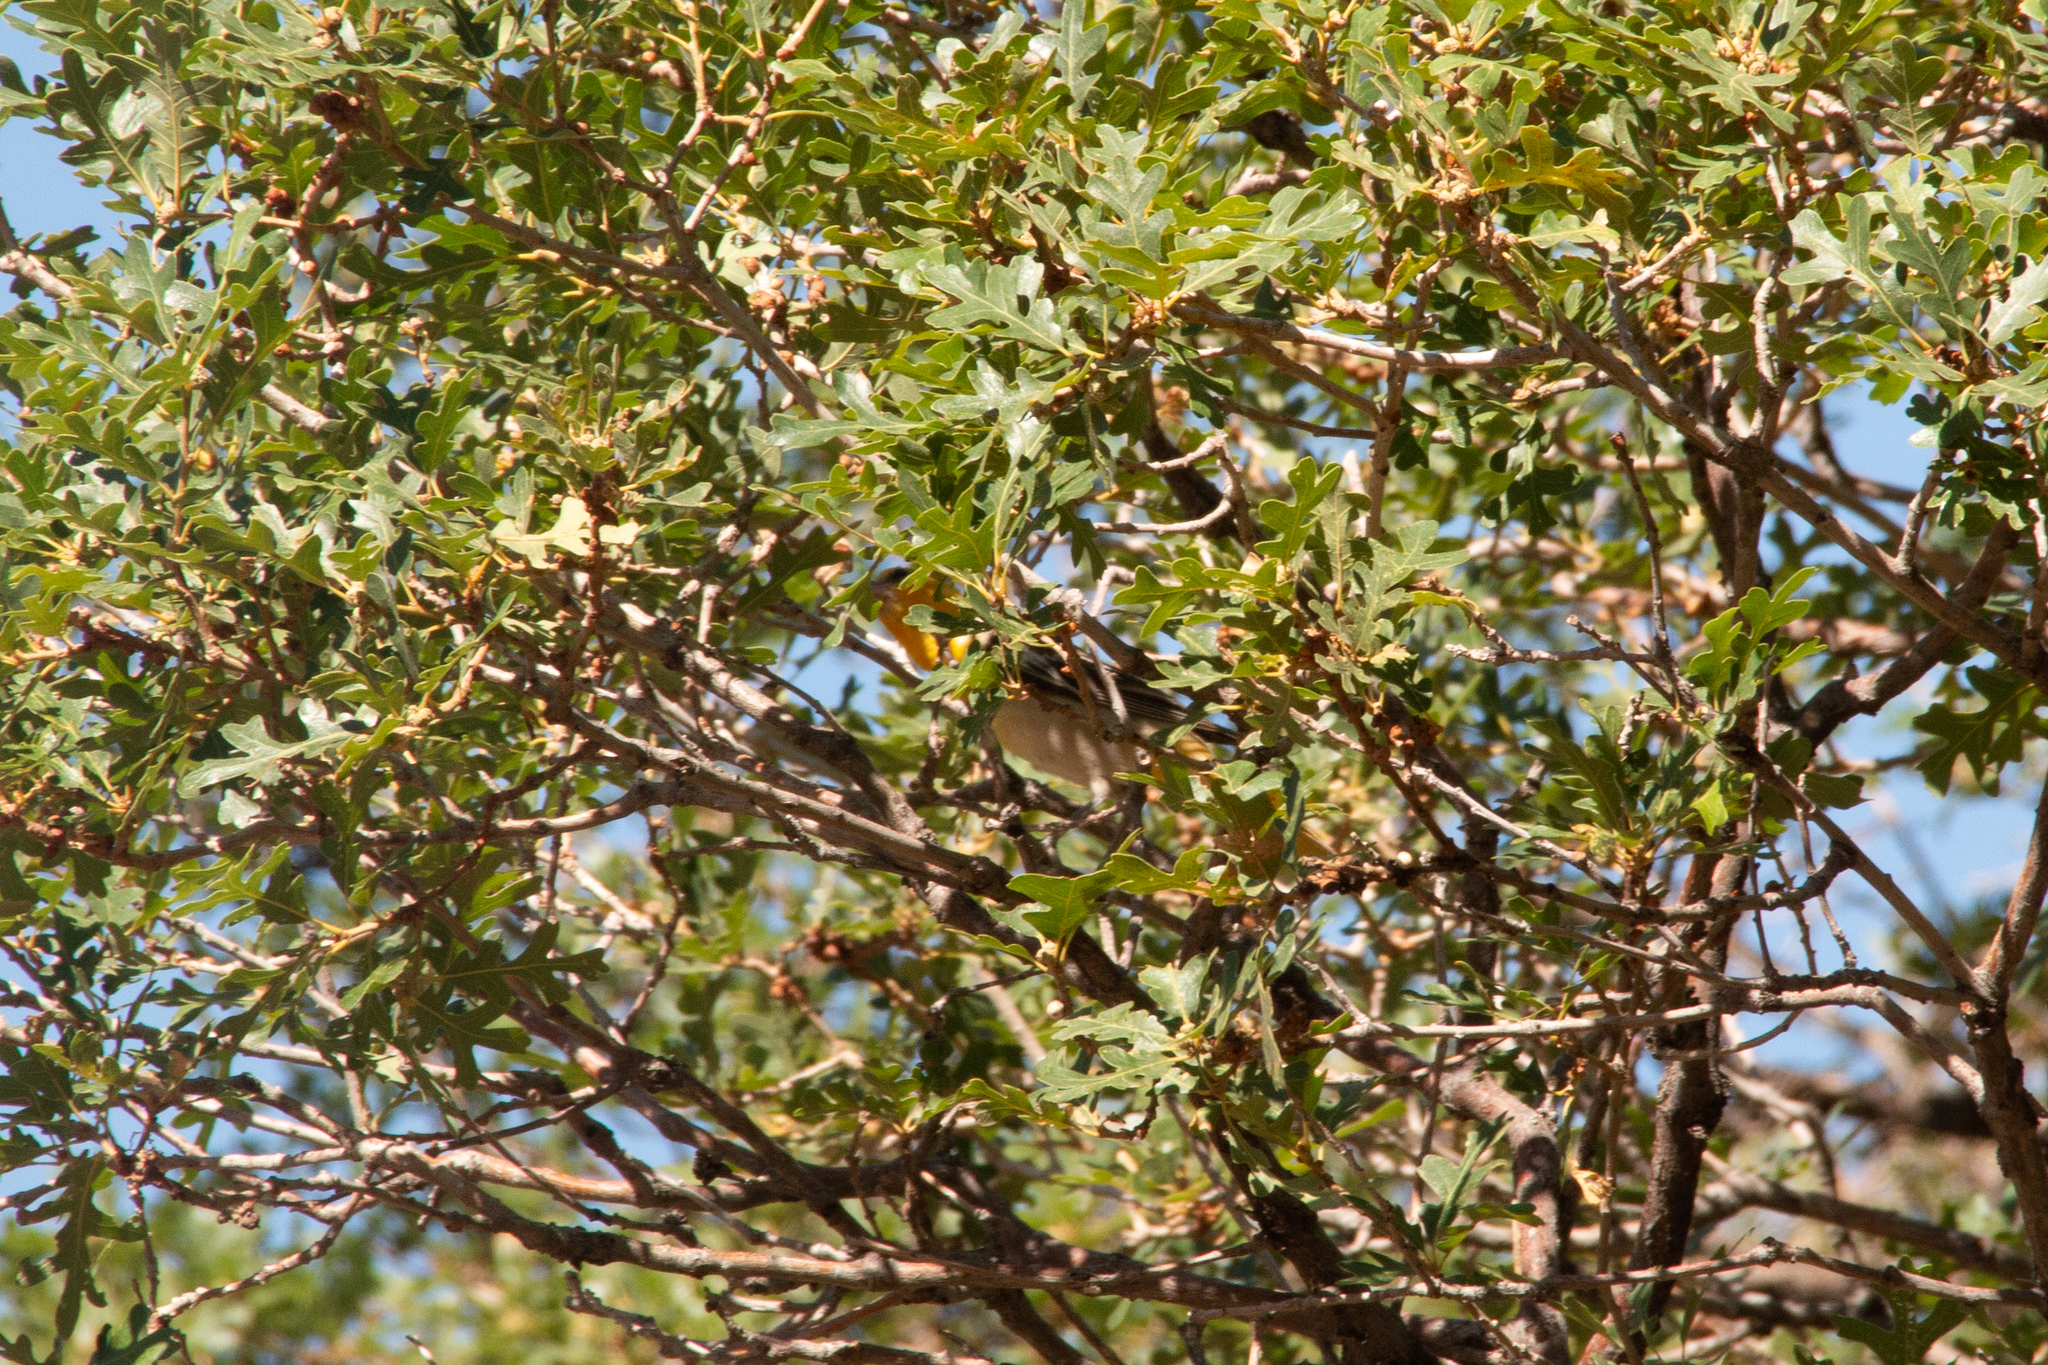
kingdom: Animalia
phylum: Chordata
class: Aves
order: Passeriformes
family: Icteridae
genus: Icterus
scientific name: Icterus bullockii
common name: Bullock's oriole
